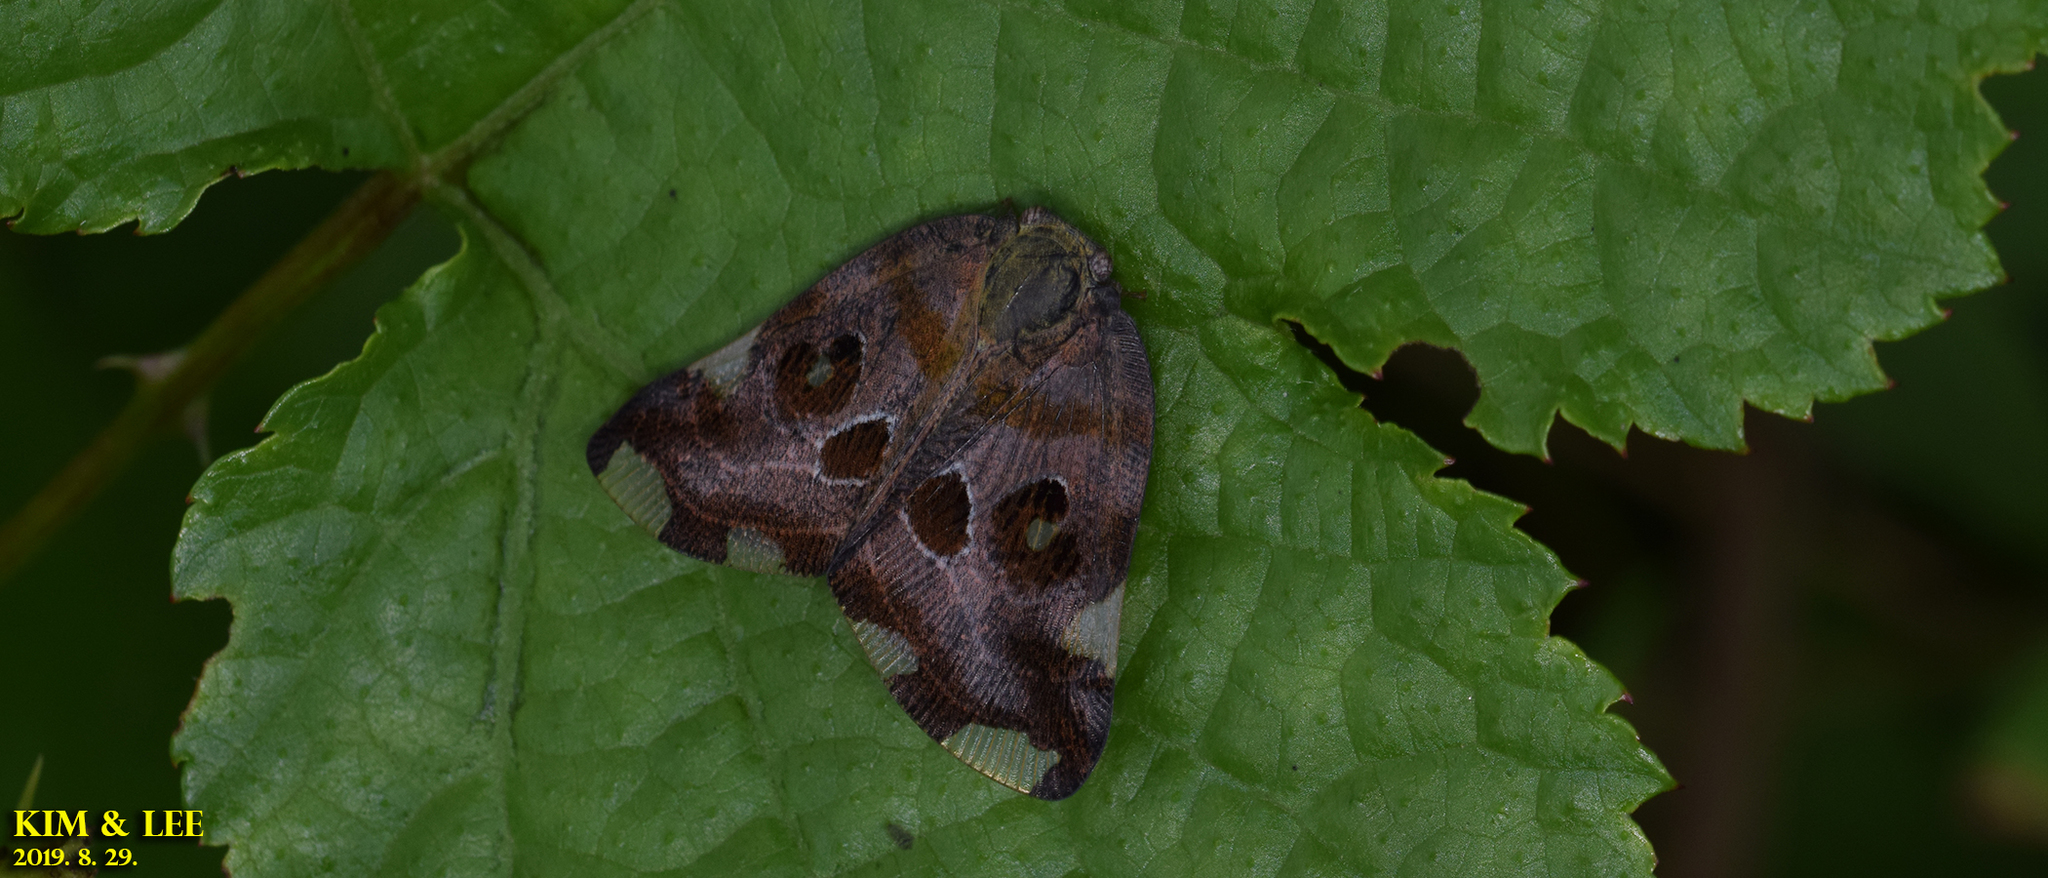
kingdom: Animalia
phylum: Arthropoda
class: Insecta
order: Hemiptera
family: Ricaniidae
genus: Ricania
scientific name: Ricania speculum
